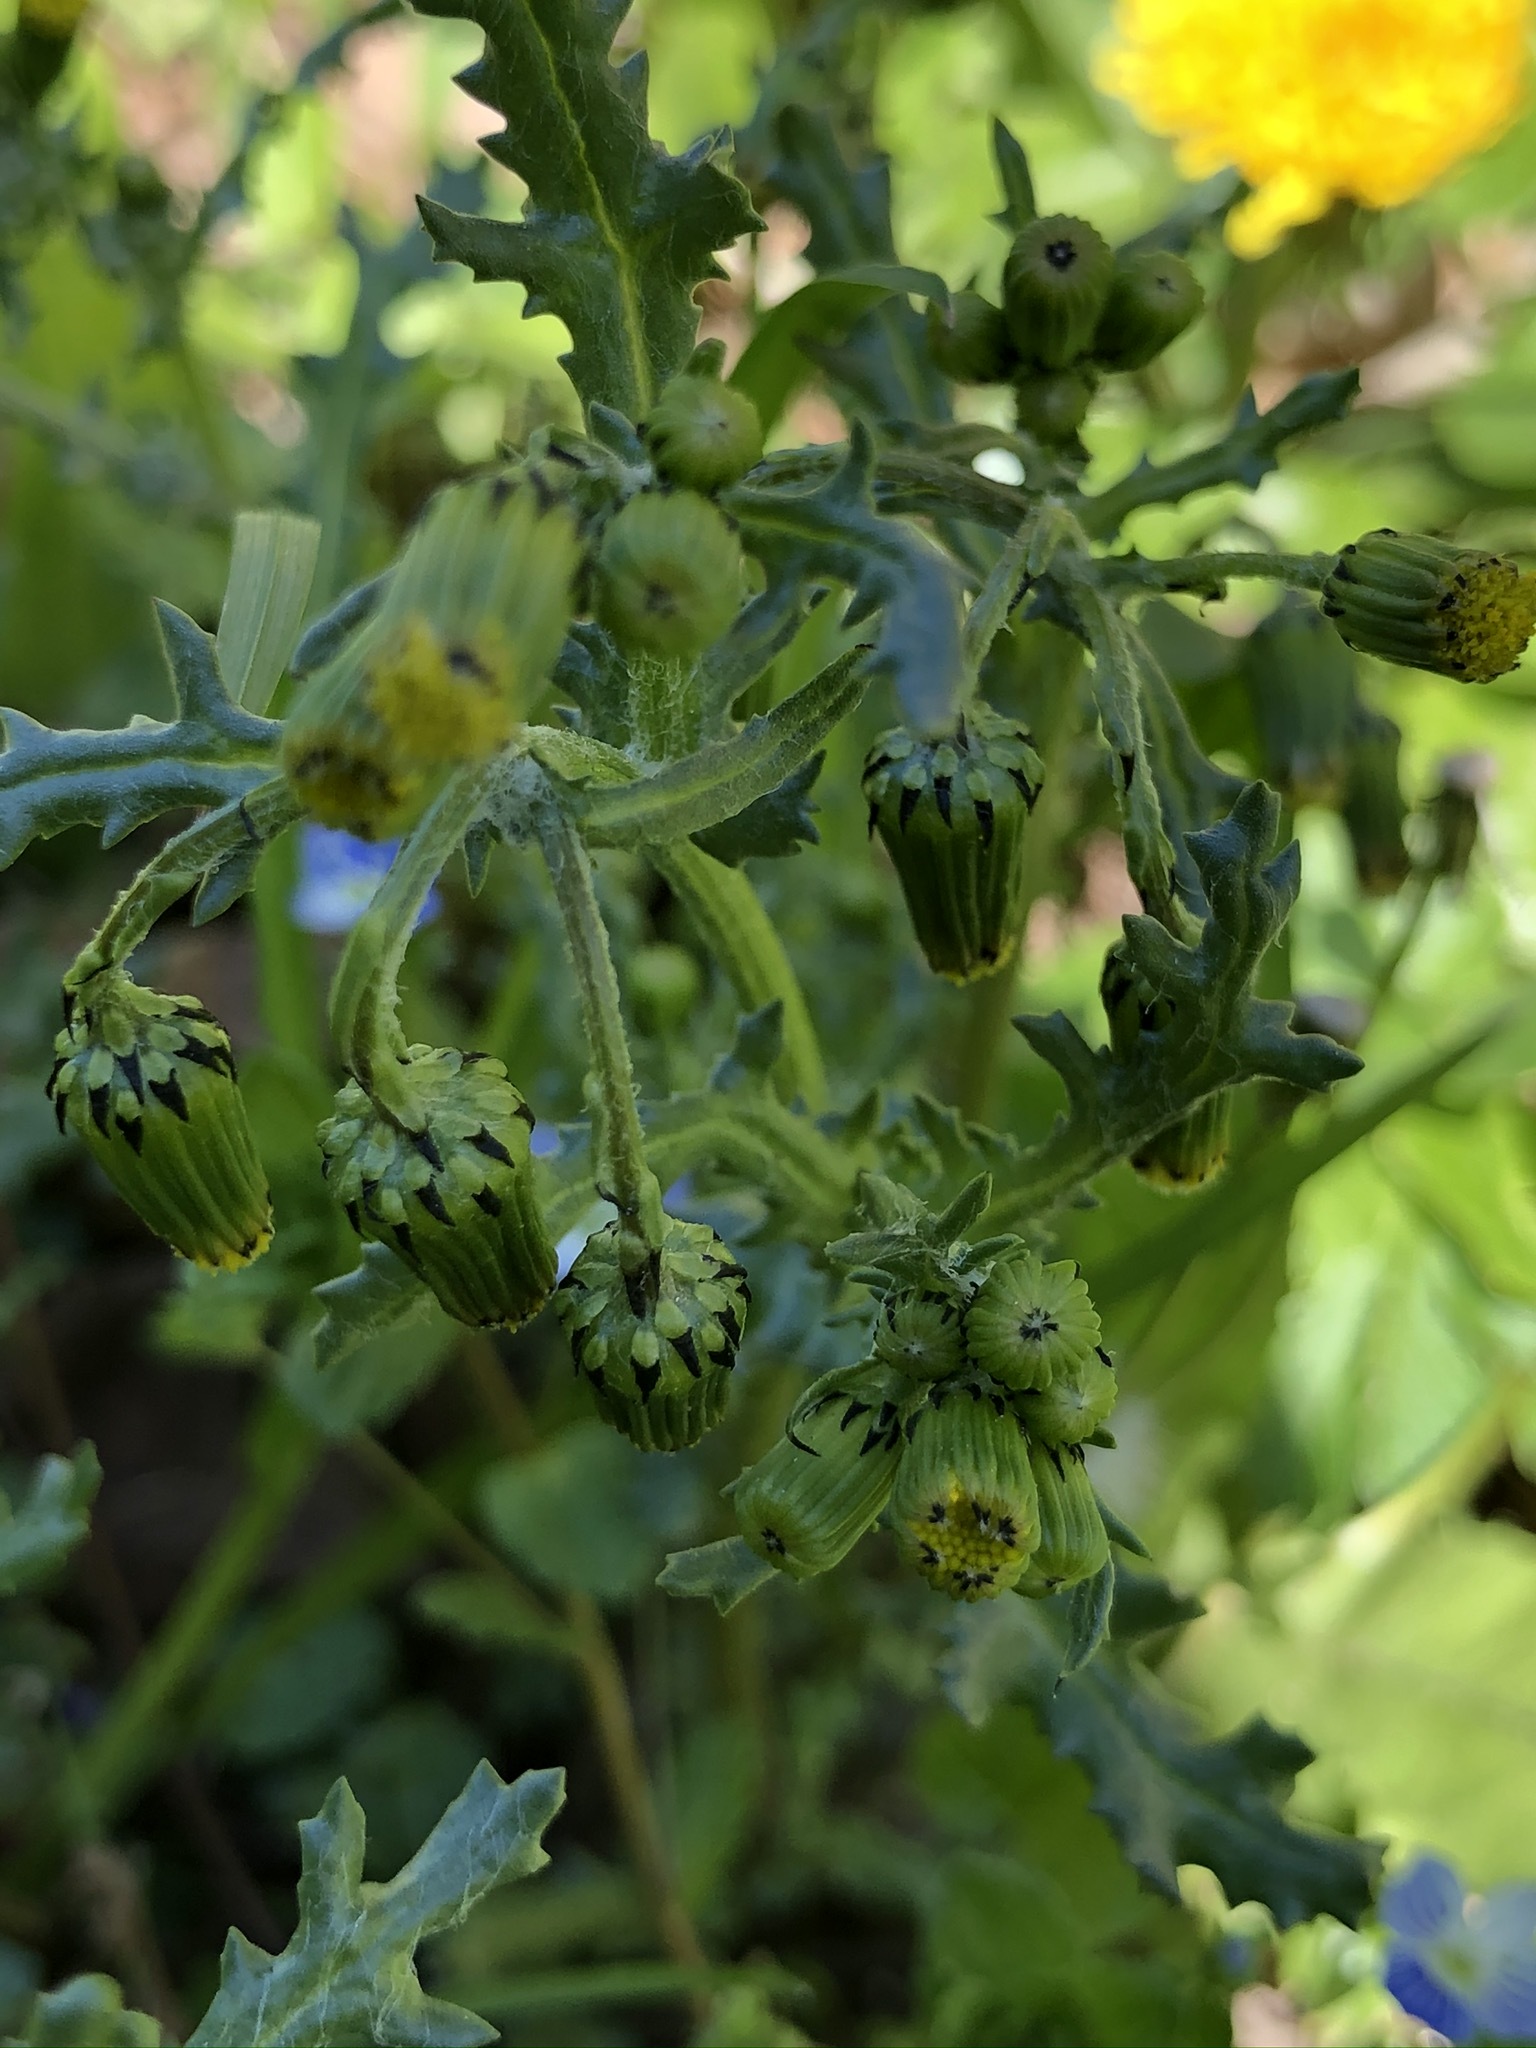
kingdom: Plantae
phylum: Tracheophyta
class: Magnoliopsida
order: Asterales
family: Asteraceae
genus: Senecio
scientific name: Senecio vulgaris
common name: Old-man-in-the-spring
